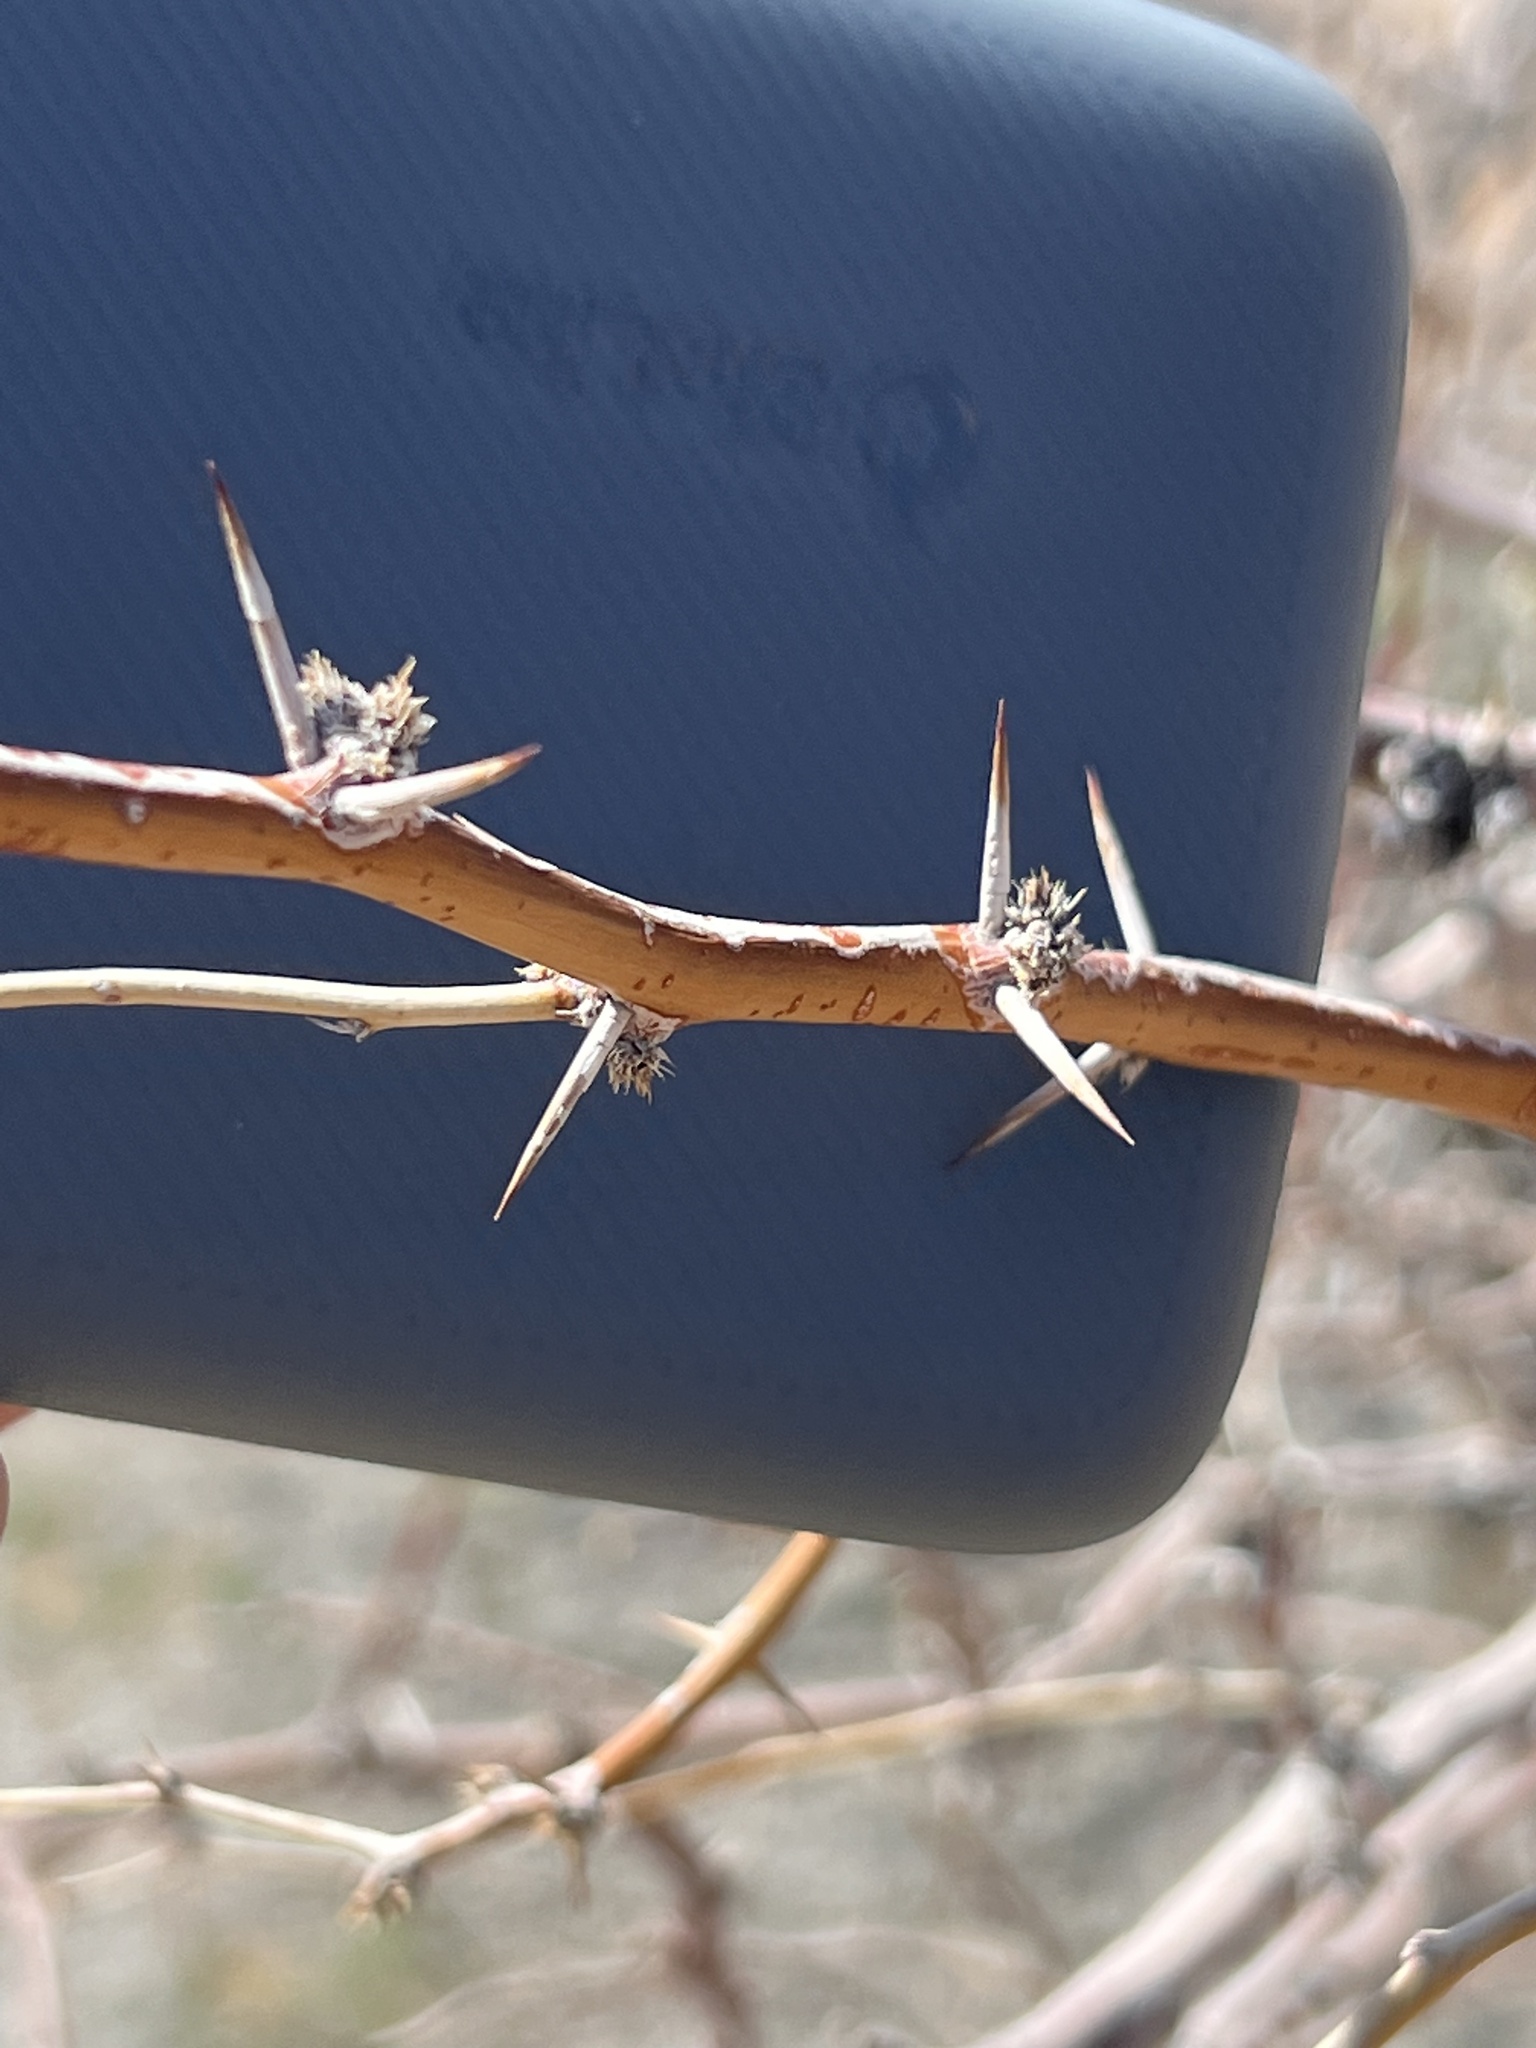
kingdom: Plantae
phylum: Tracheophyta
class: Magnoliopsida
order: Fabales
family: Fabaceae
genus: Prosopis
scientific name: Prosopis pubescens
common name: Screw-bean
